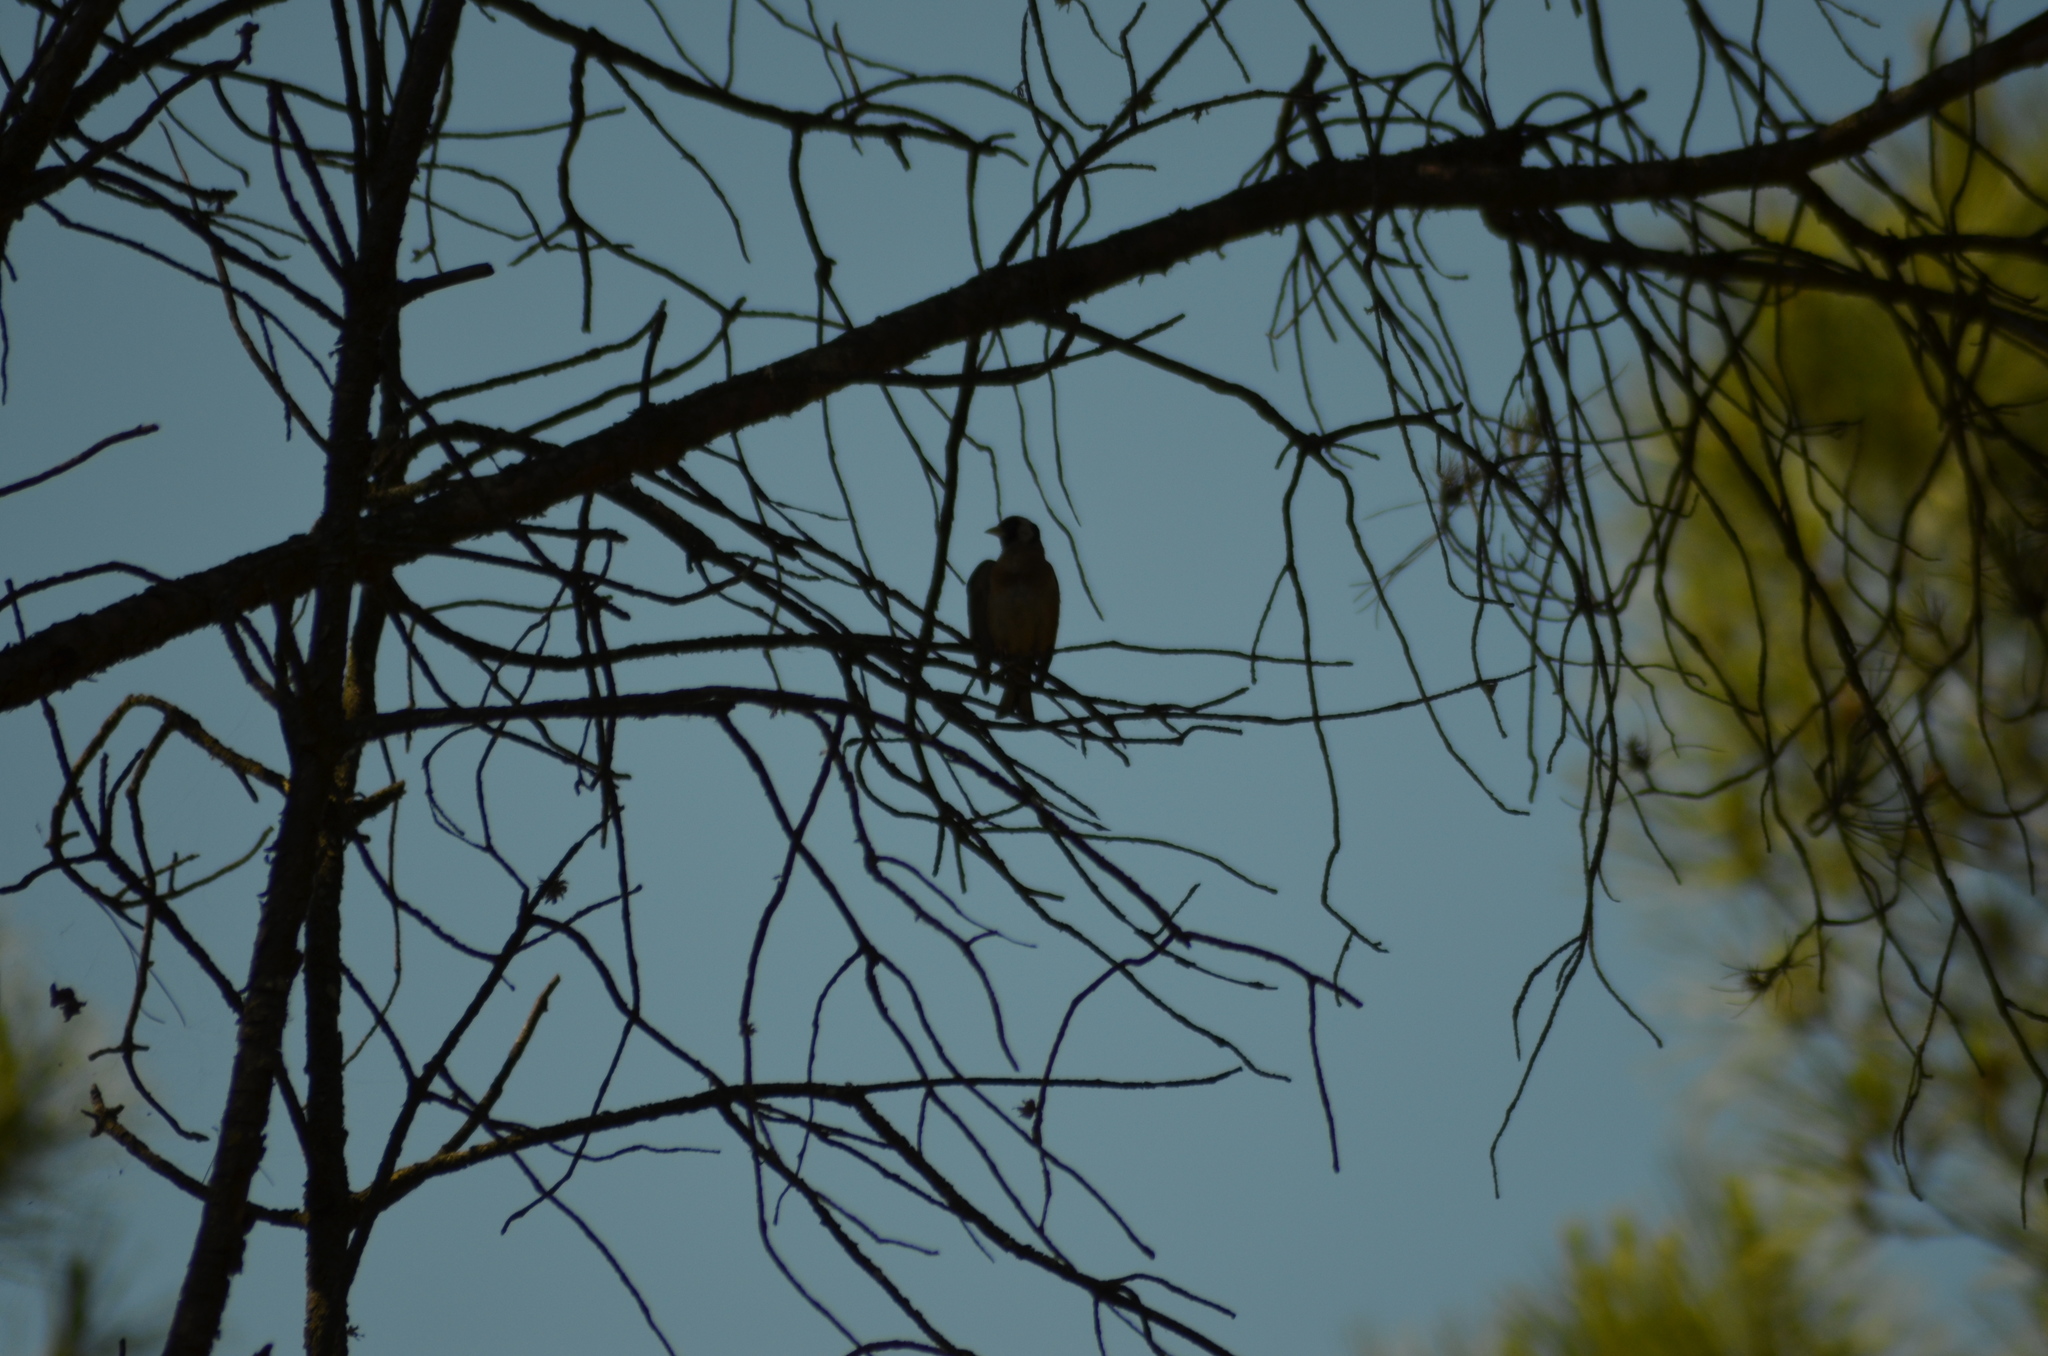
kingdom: Animalia
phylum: Chordata
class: Aves
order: Passeriformes
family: Fringillidae
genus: Carduelis
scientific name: Carduelis carduelis
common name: European goldfinch
